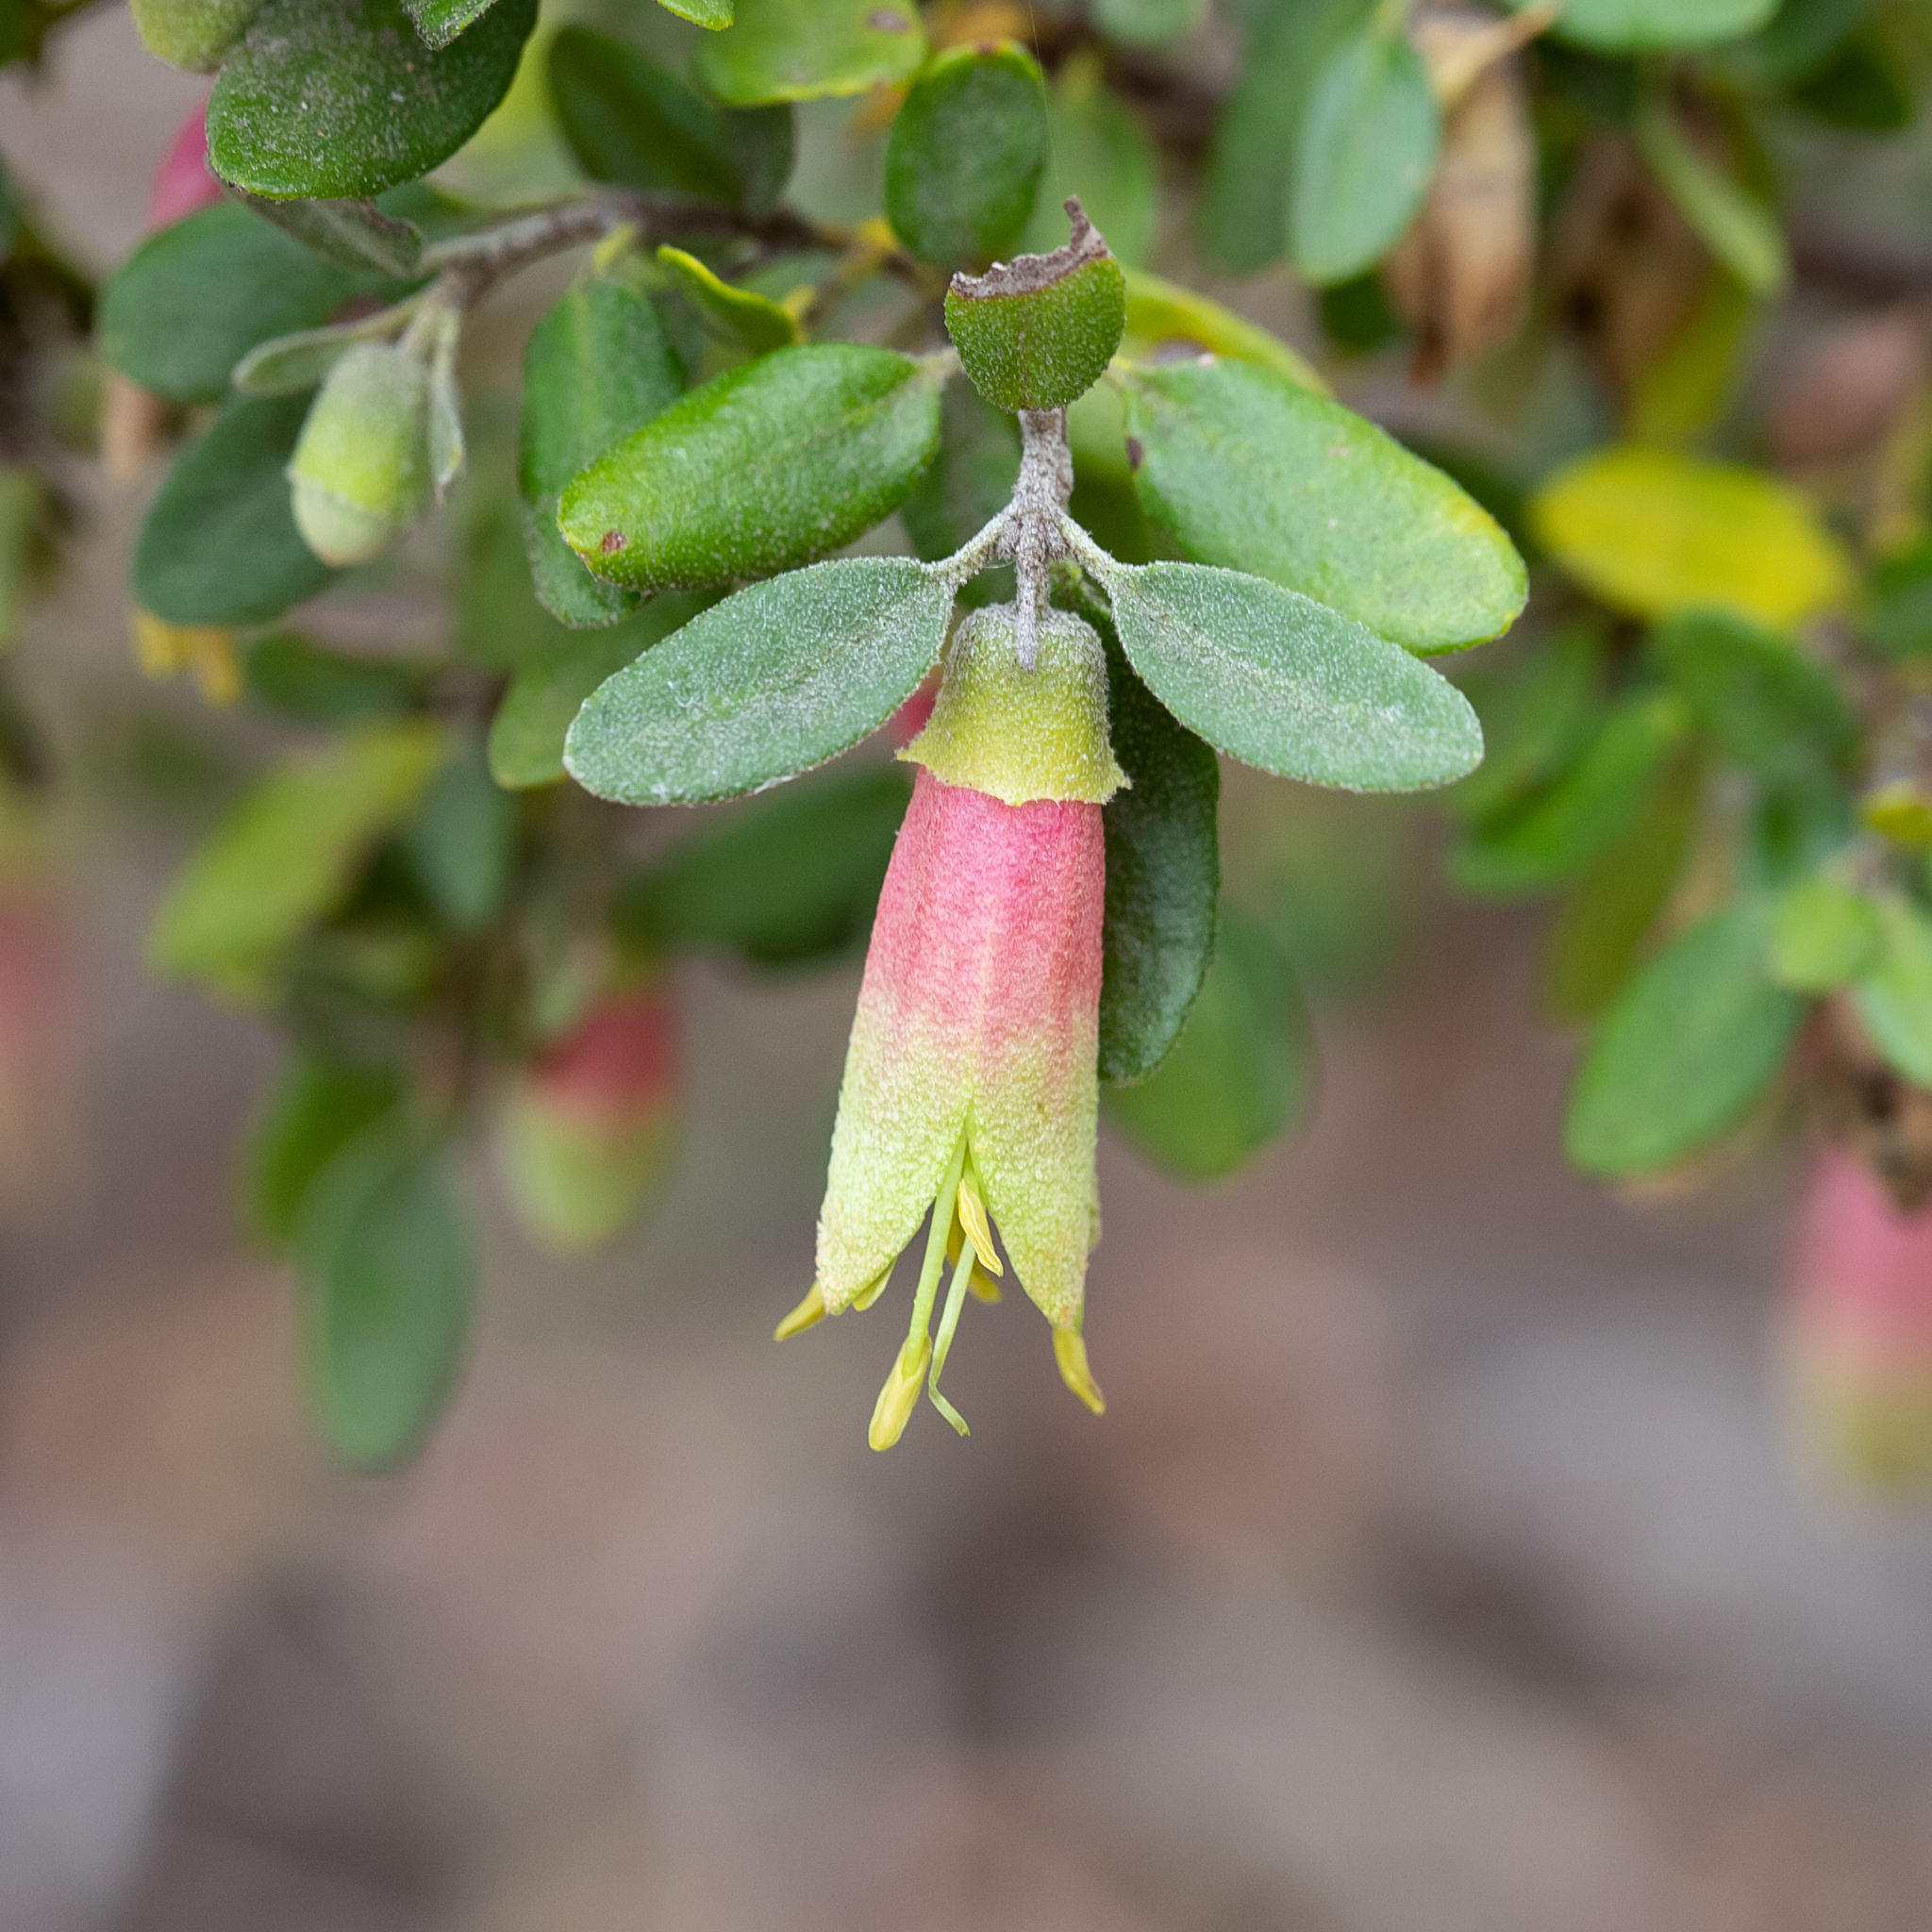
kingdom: Plantae
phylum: Tracheophyta
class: Magnoliopsida
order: Sapindales
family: Rutaceae
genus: Correa
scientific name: Correa glabra
